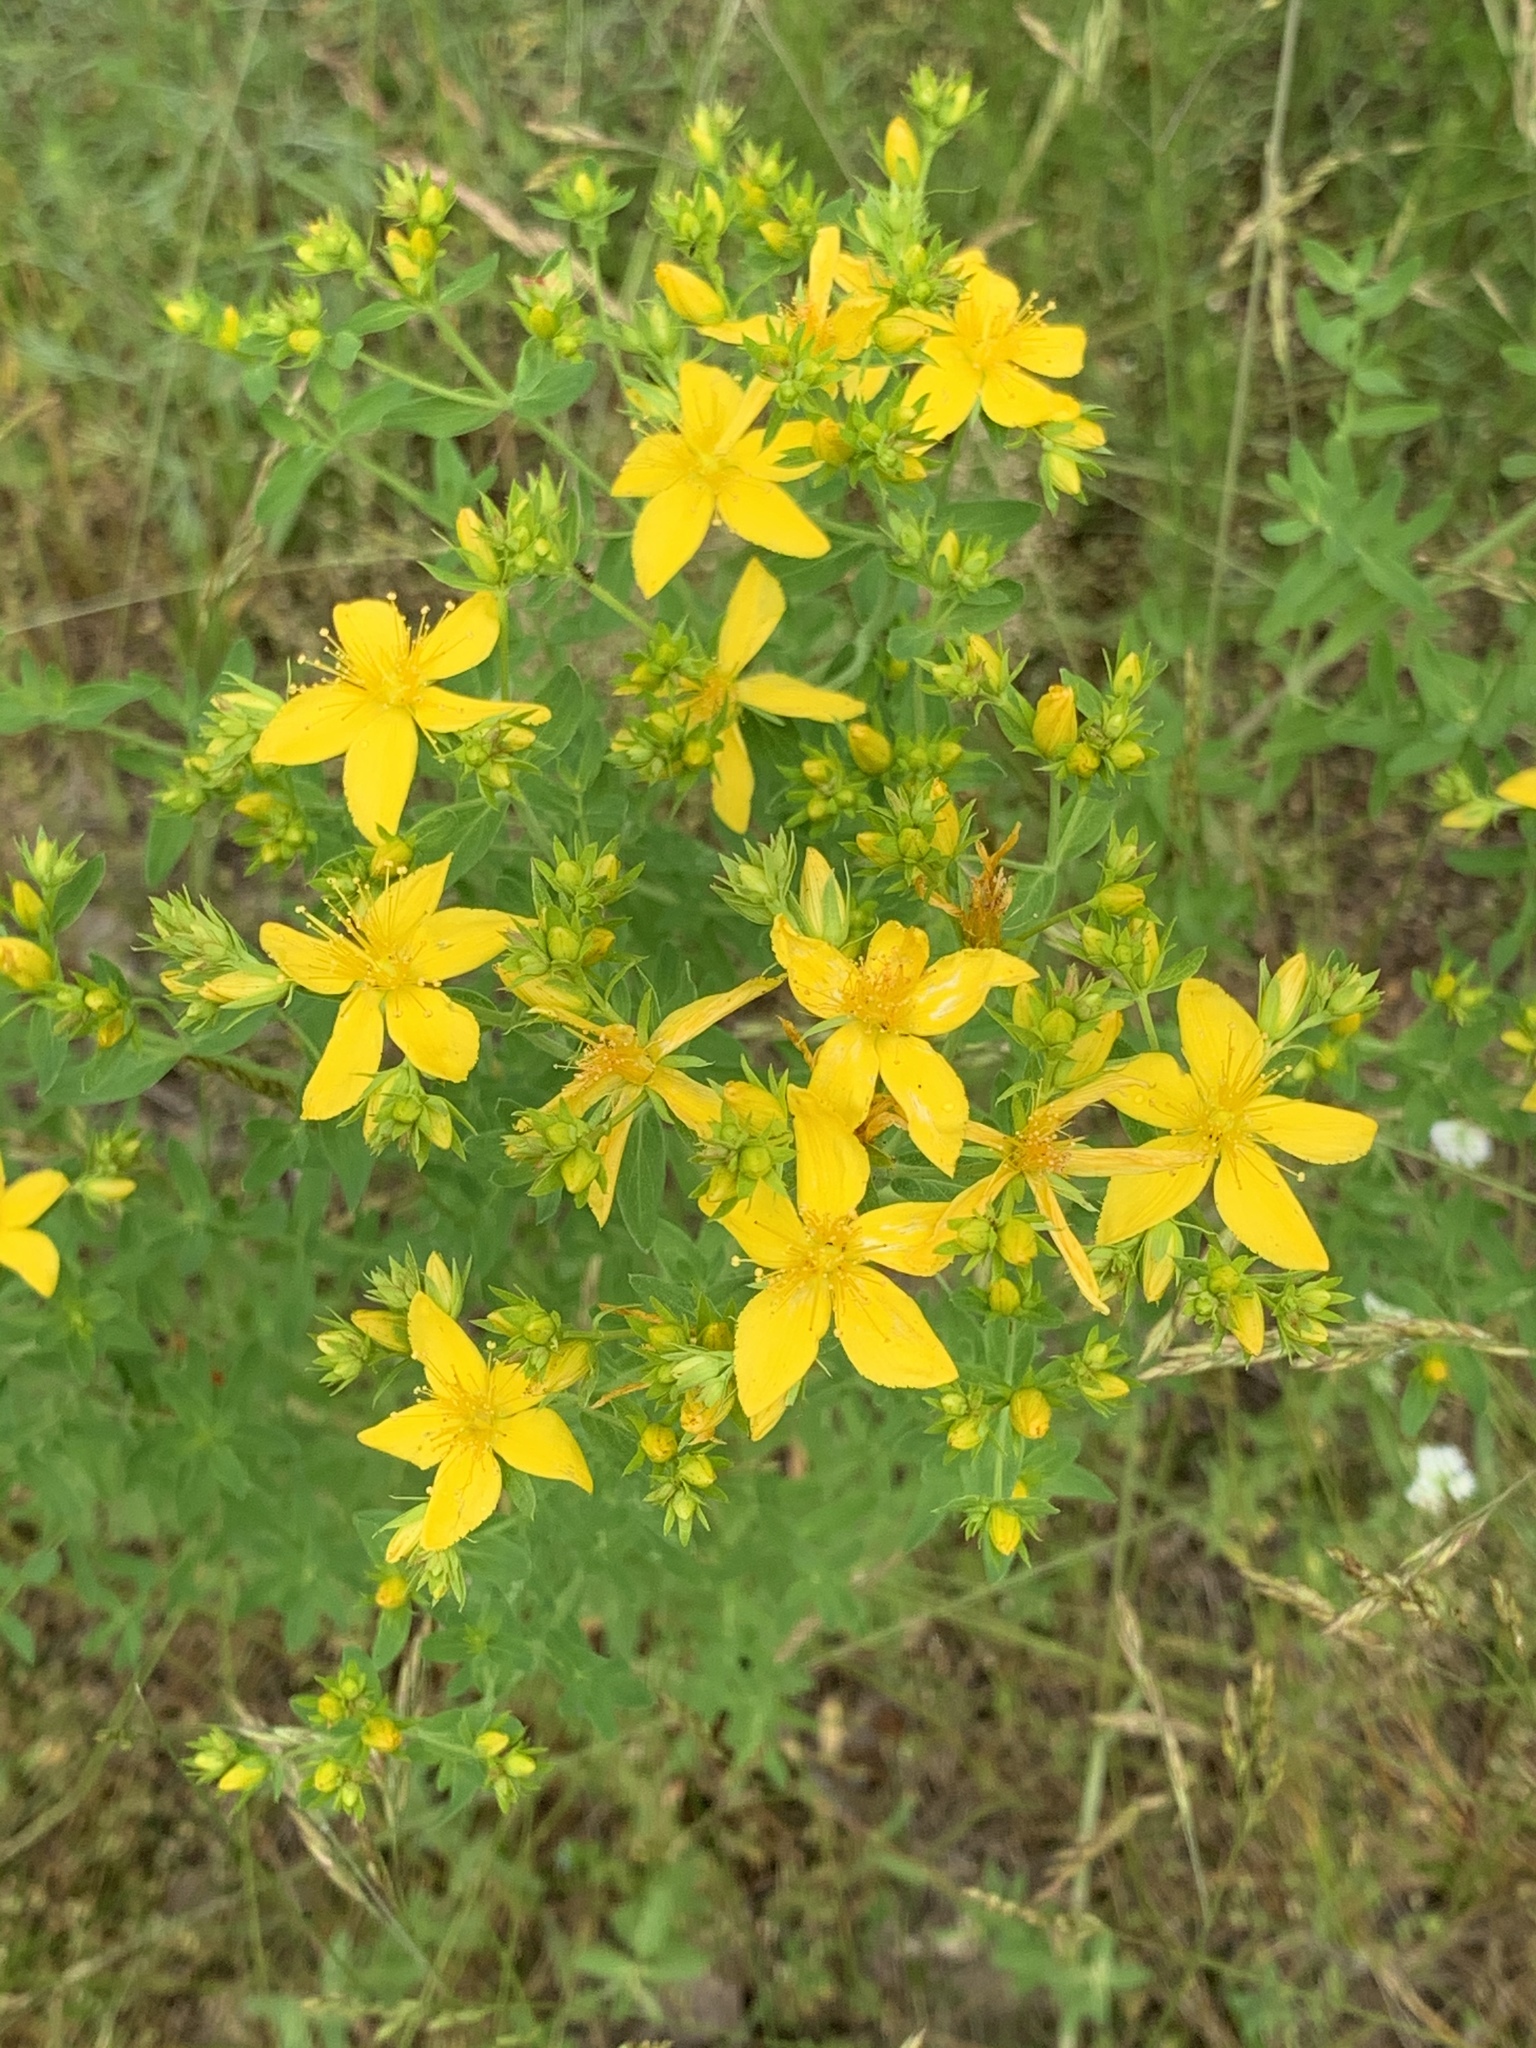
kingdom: Plantae
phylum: Tracheophyta
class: Magnoliopsida
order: Malpighiales
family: Hypericaceae
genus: Hypericum
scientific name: Hypericum perforatum
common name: Common st. johnswort
